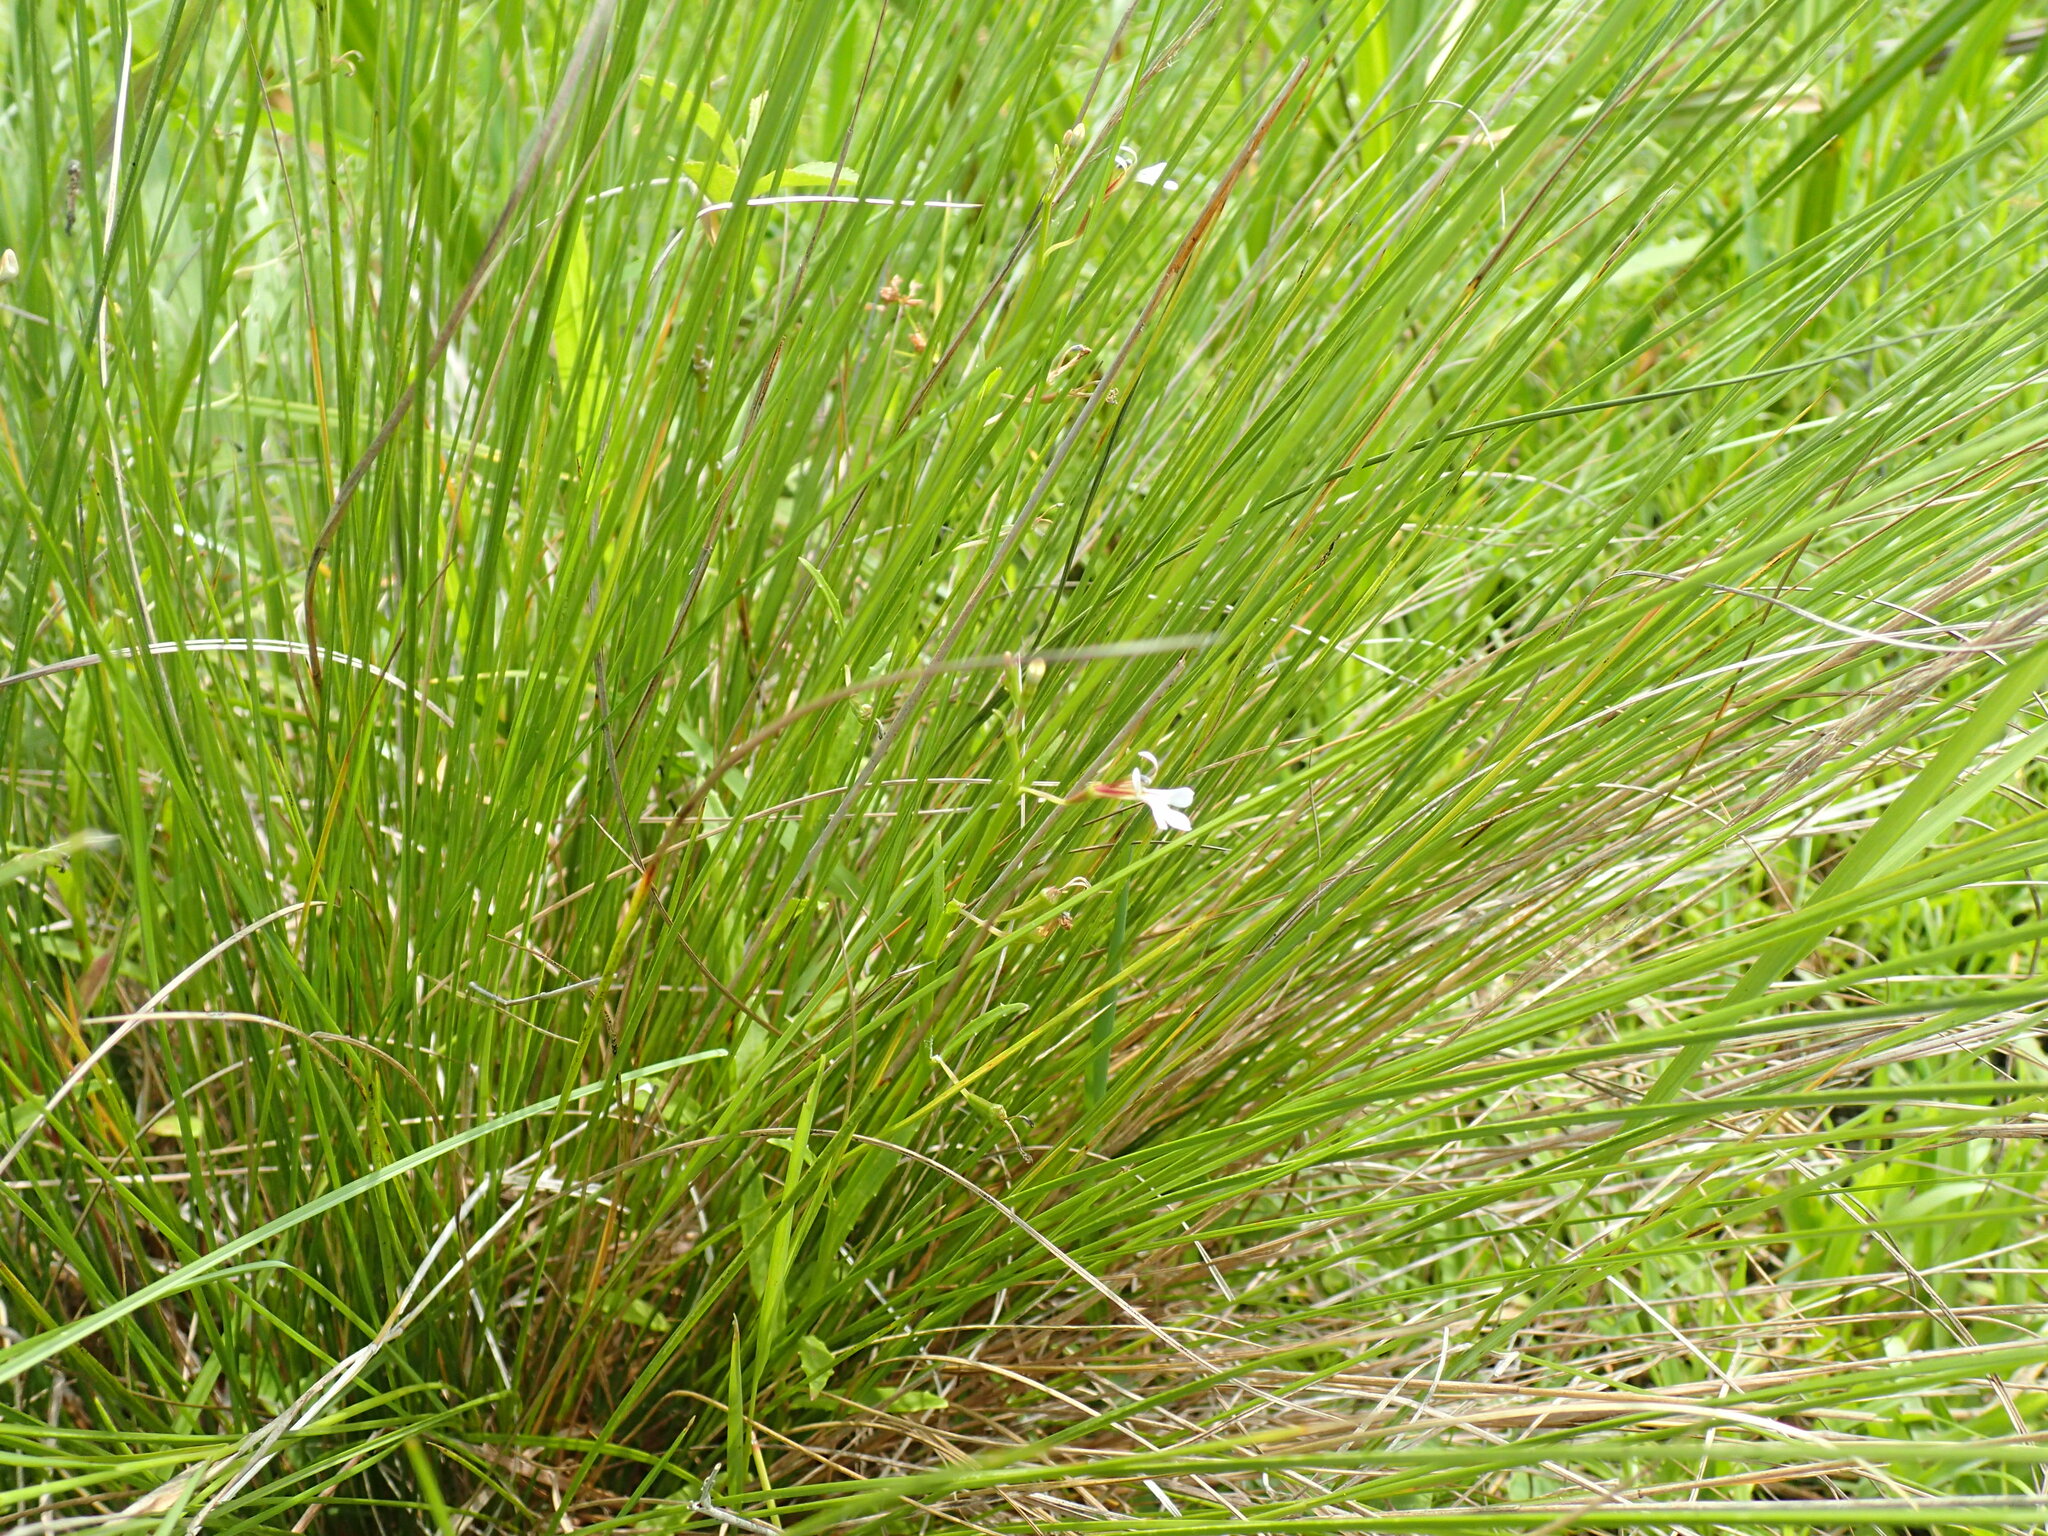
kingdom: Plantae
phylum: Tracheophyta
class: Magnoliopsida
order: Asterales
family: Campanulaceae
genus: Lobelia
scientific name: Lobelia anceps
